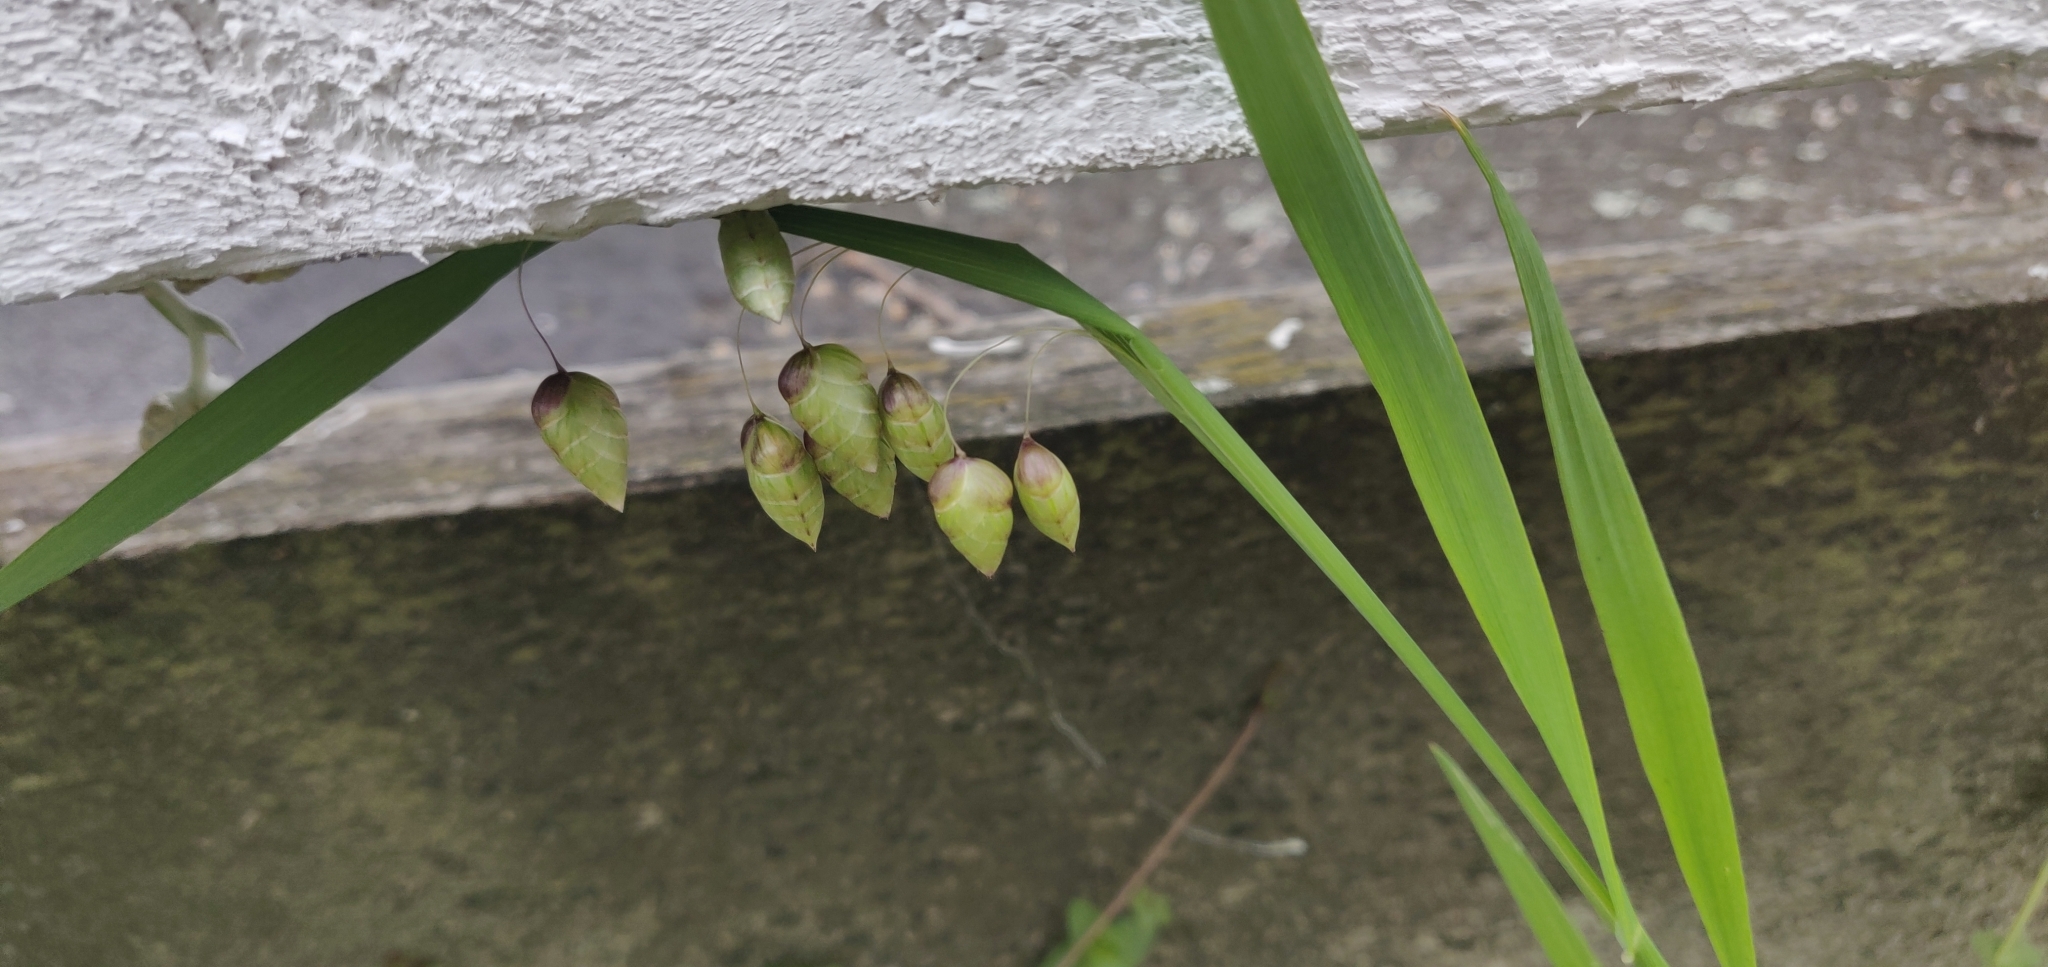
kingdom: Plantae
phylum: Tracheophyta
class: Liliopsida
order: Poales
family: Poaceae
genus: Briza
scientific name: Briza maxima
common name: Big quakinggrass
